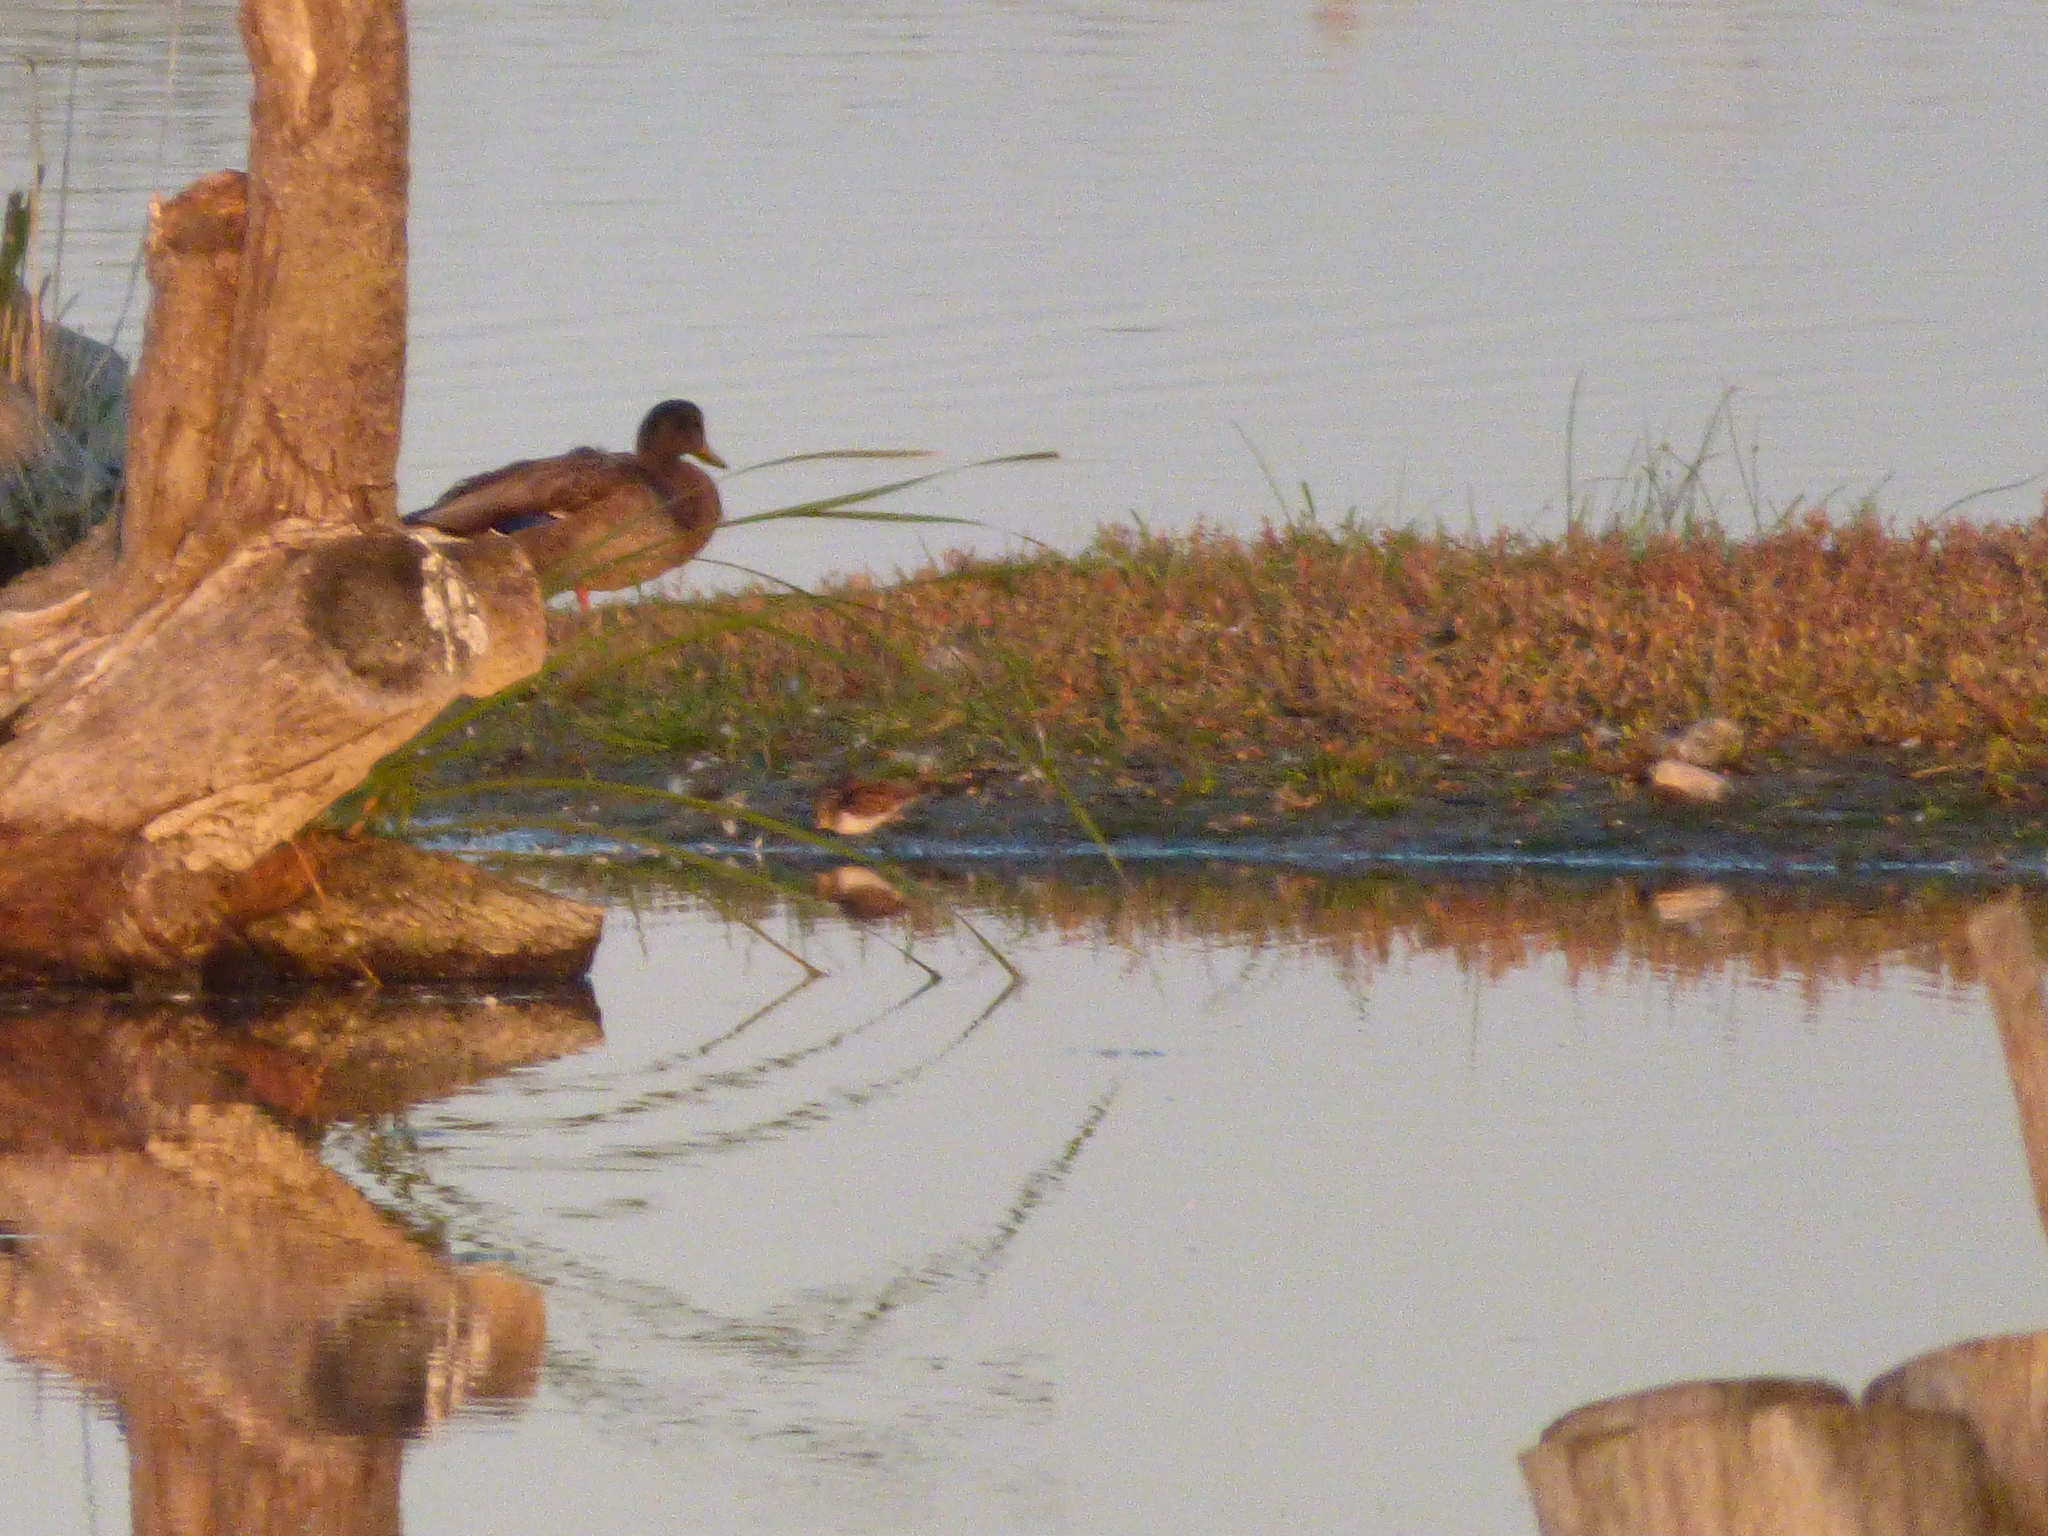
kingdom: Animalia
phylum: Chordata
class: Aves
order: Anseriformes
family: Anatidae
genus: Anas
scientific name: Anas platyrhynchos
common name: Mallard
